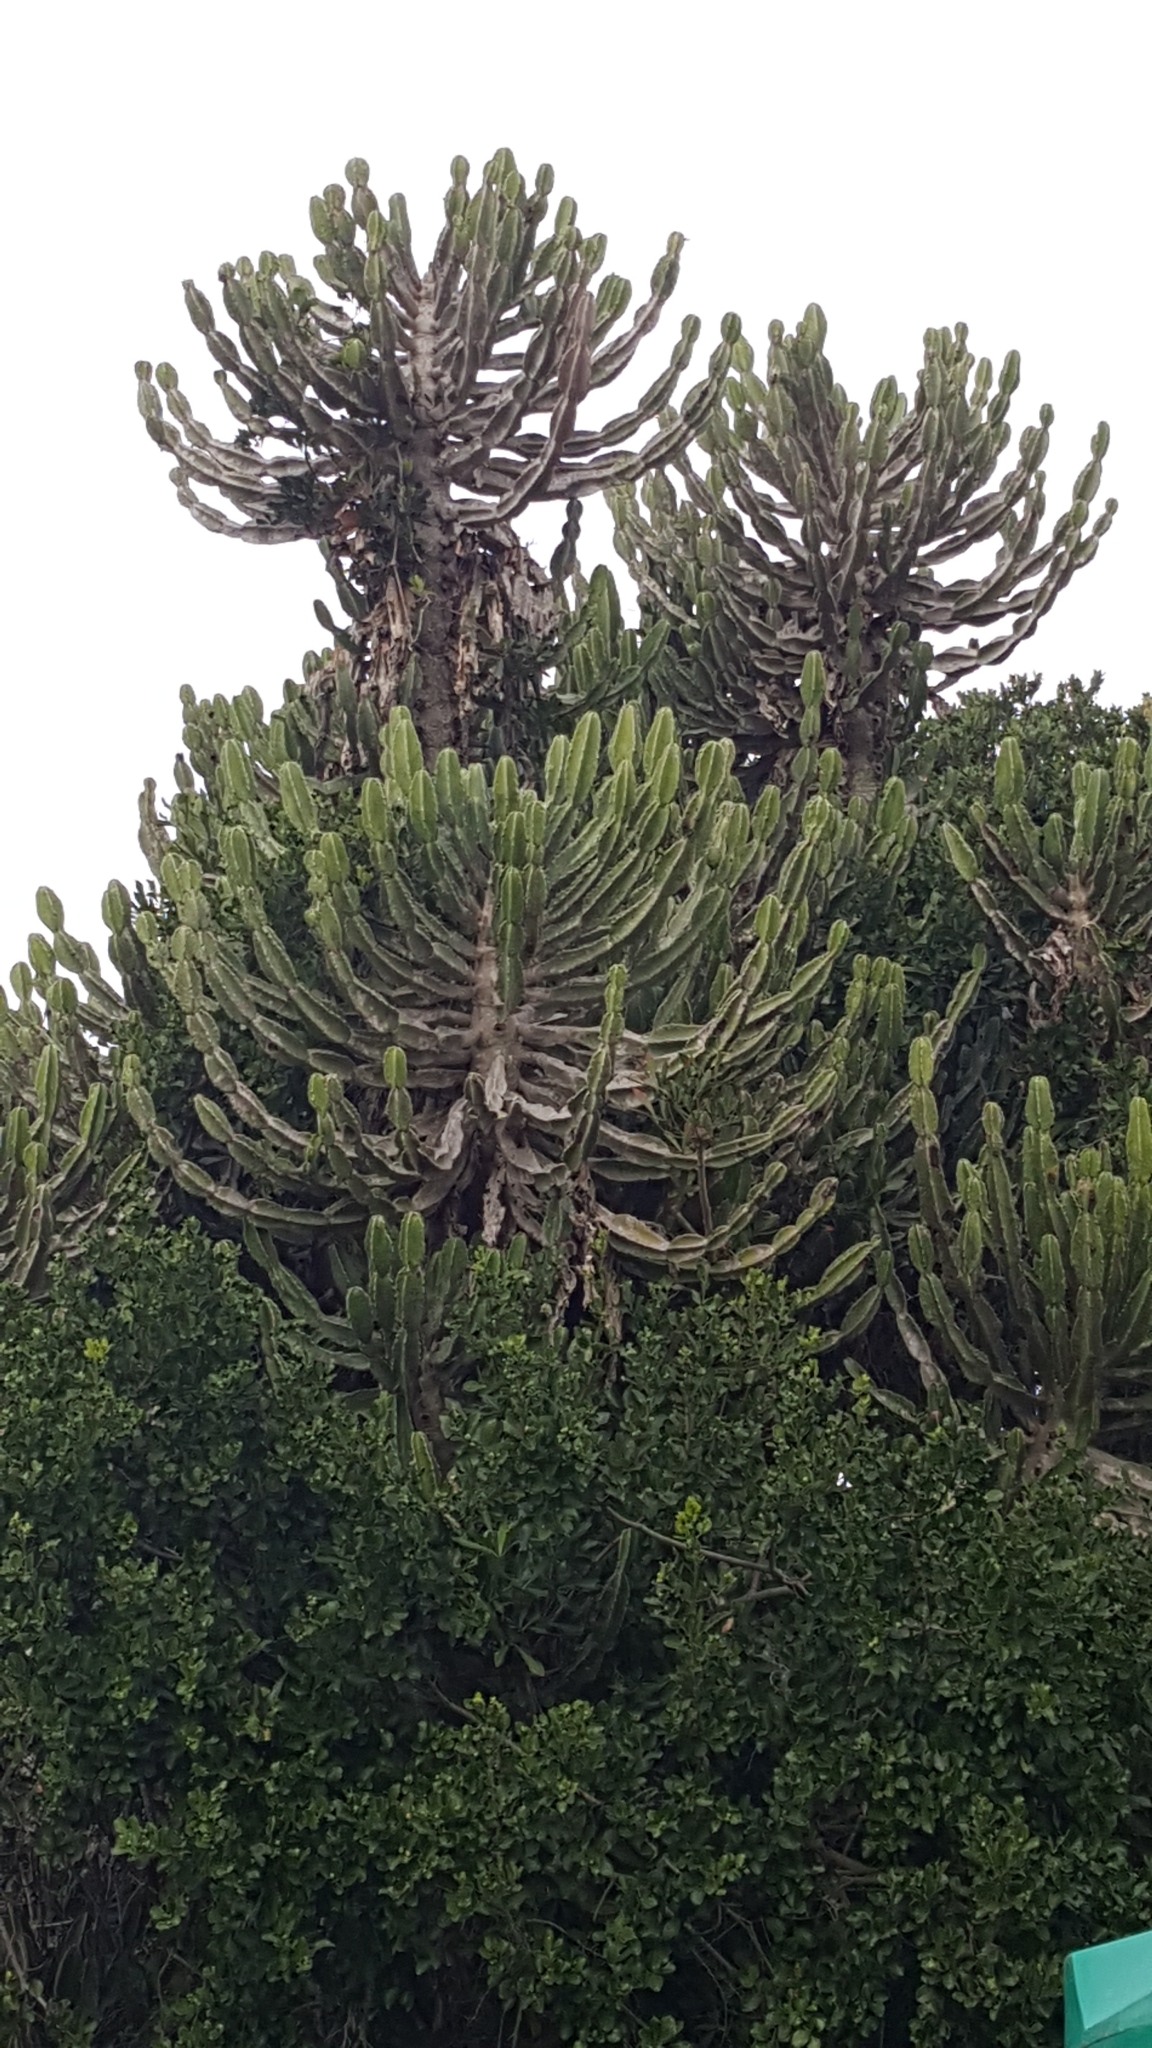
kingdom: Plantae
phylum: Tracheophyta
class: Magnoliopsida
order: Malpighiales
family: Euphorbiaceae
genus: Euphorbia
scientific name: Euphorbia triangularis
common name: Chandelier tree
